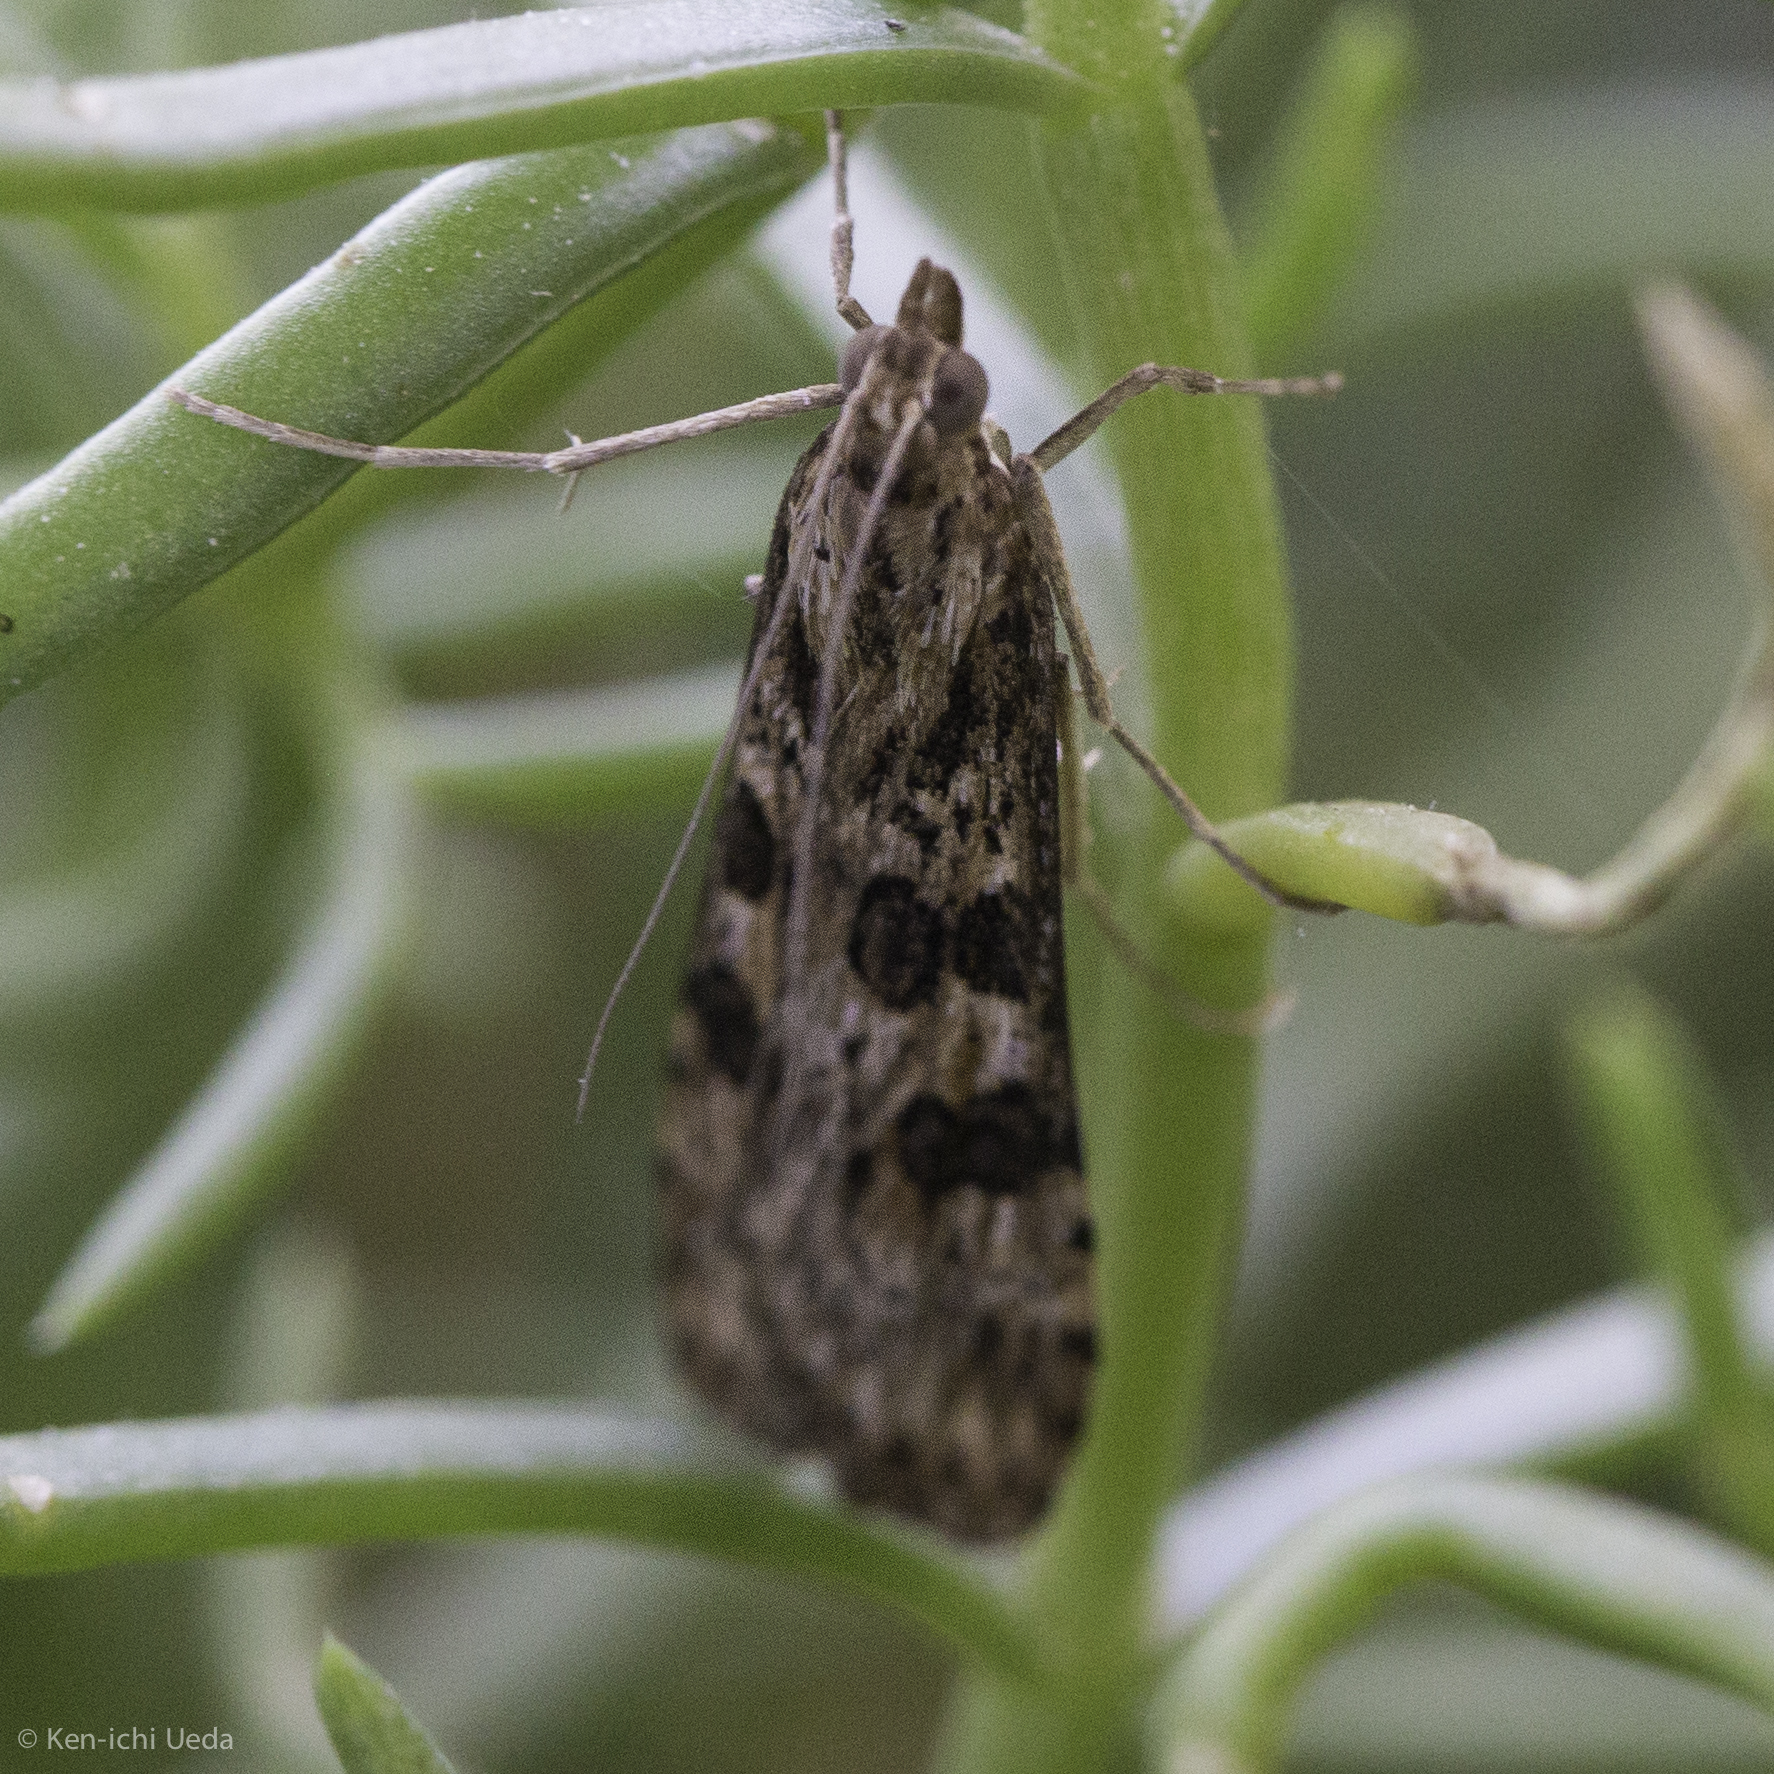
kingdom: Animalia
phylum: Arthropoda
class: Insecta
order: Lepidoptera
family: Crambidae
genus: Nomophila
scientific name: Nomophila nearctica
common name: American rush veneer
